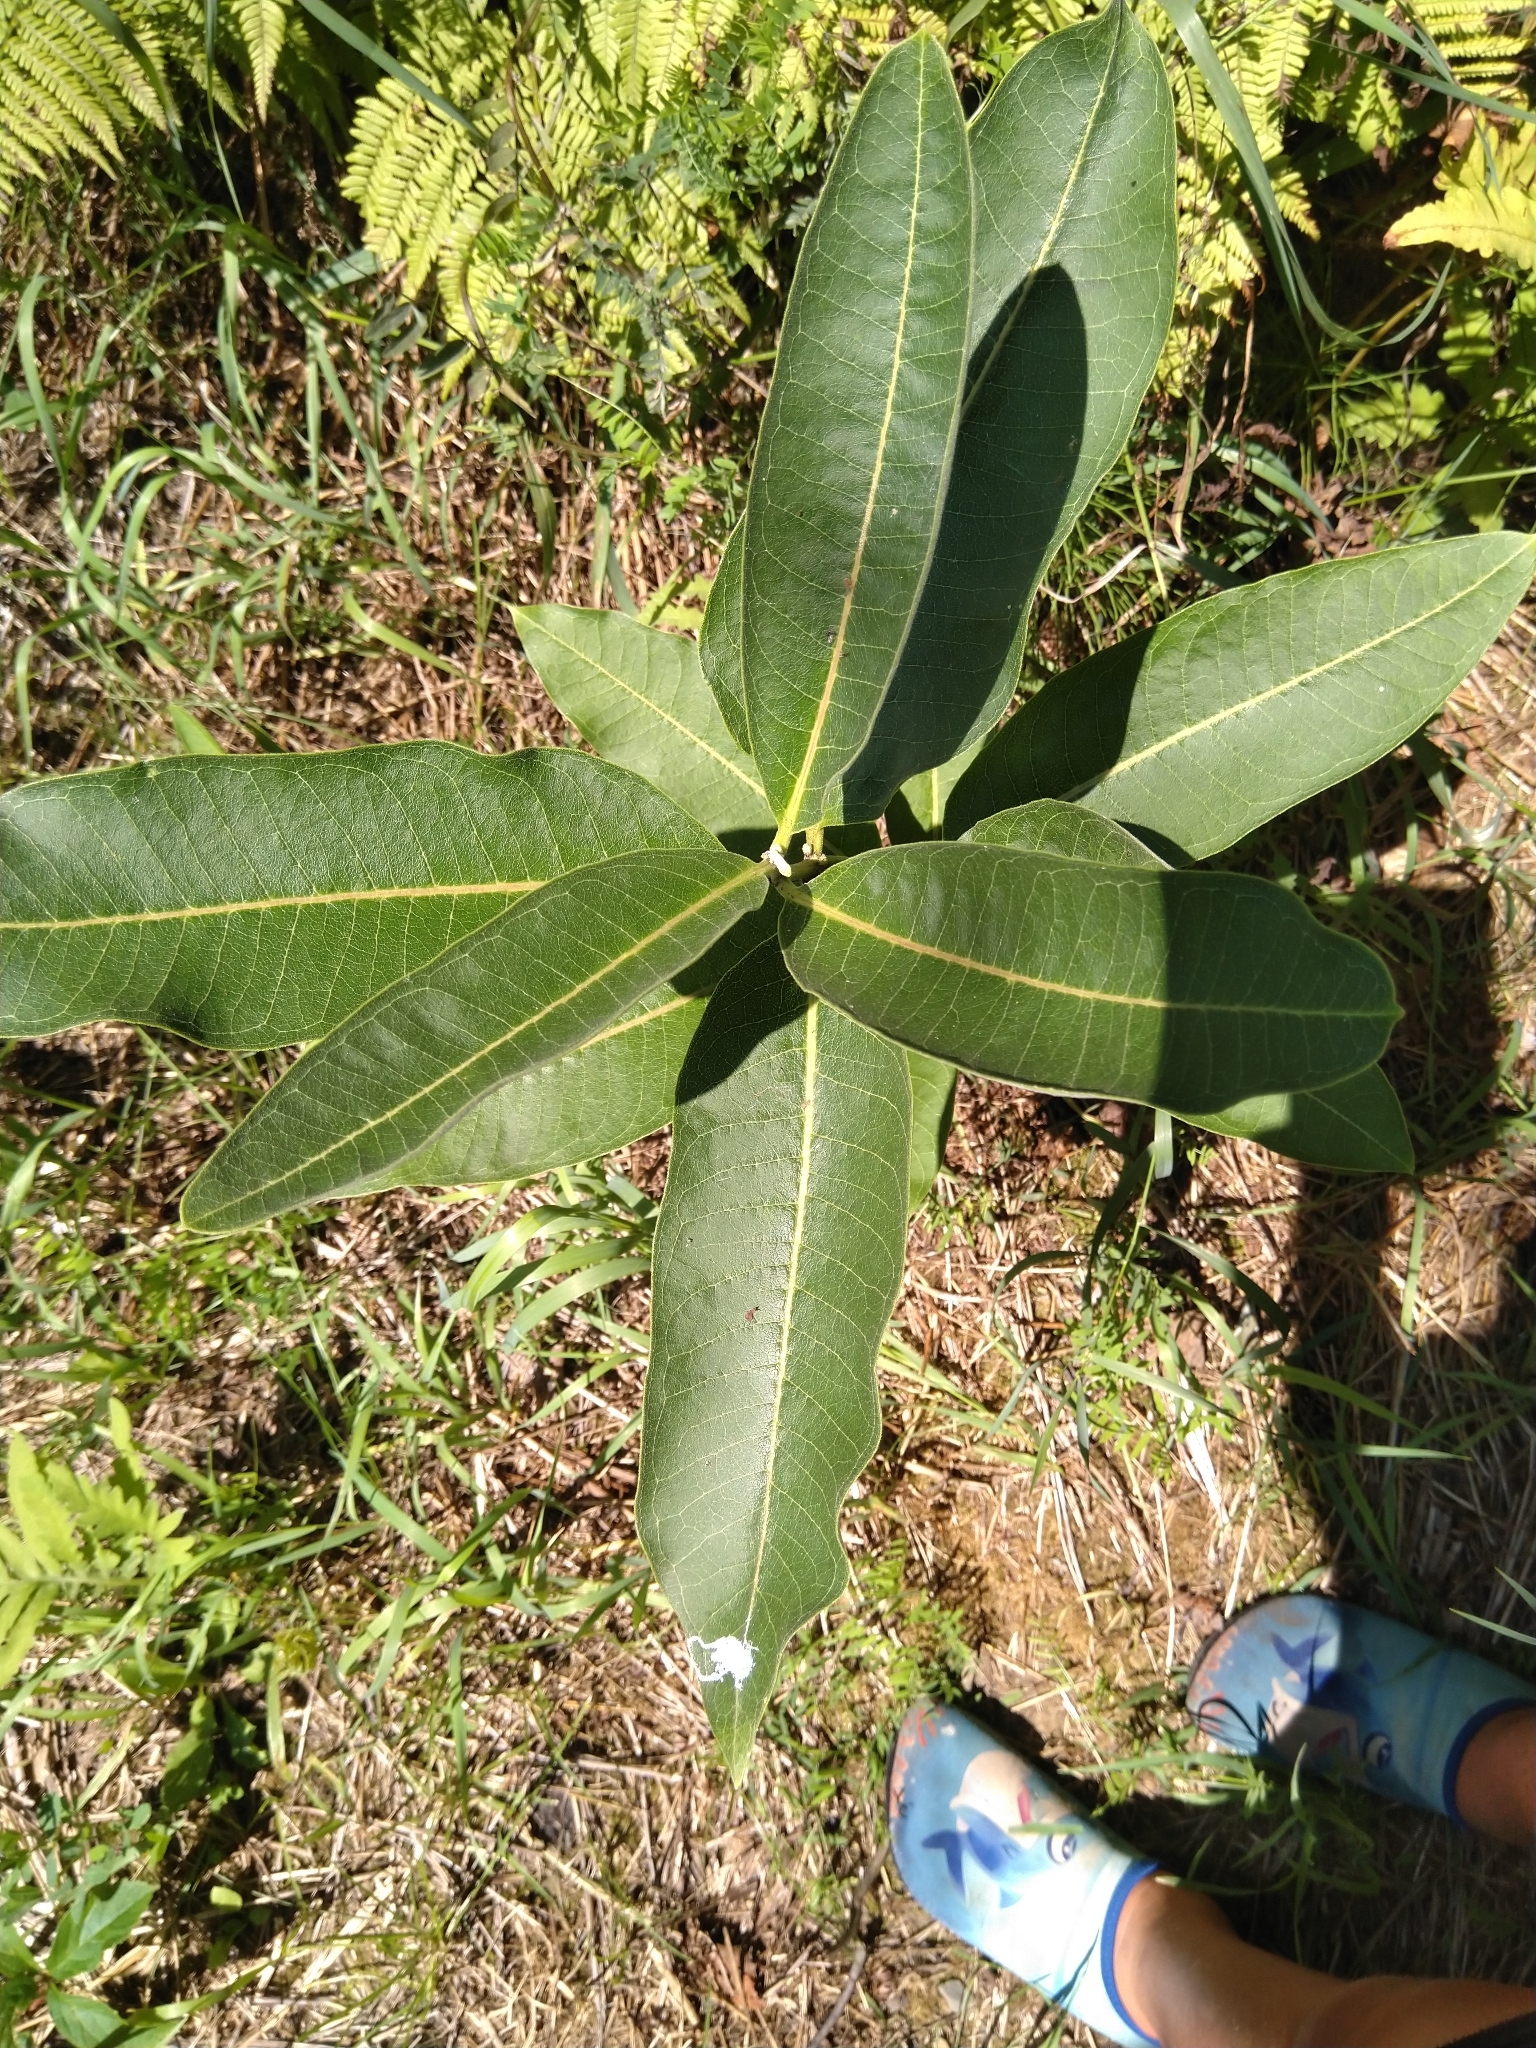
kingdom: Plantae
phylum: Tracheophyta
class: Magnoliopsida
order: Gentianales
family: Apocynaceae
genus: Asclepias
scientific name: Asclepias syriaca
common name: Common milkweed
